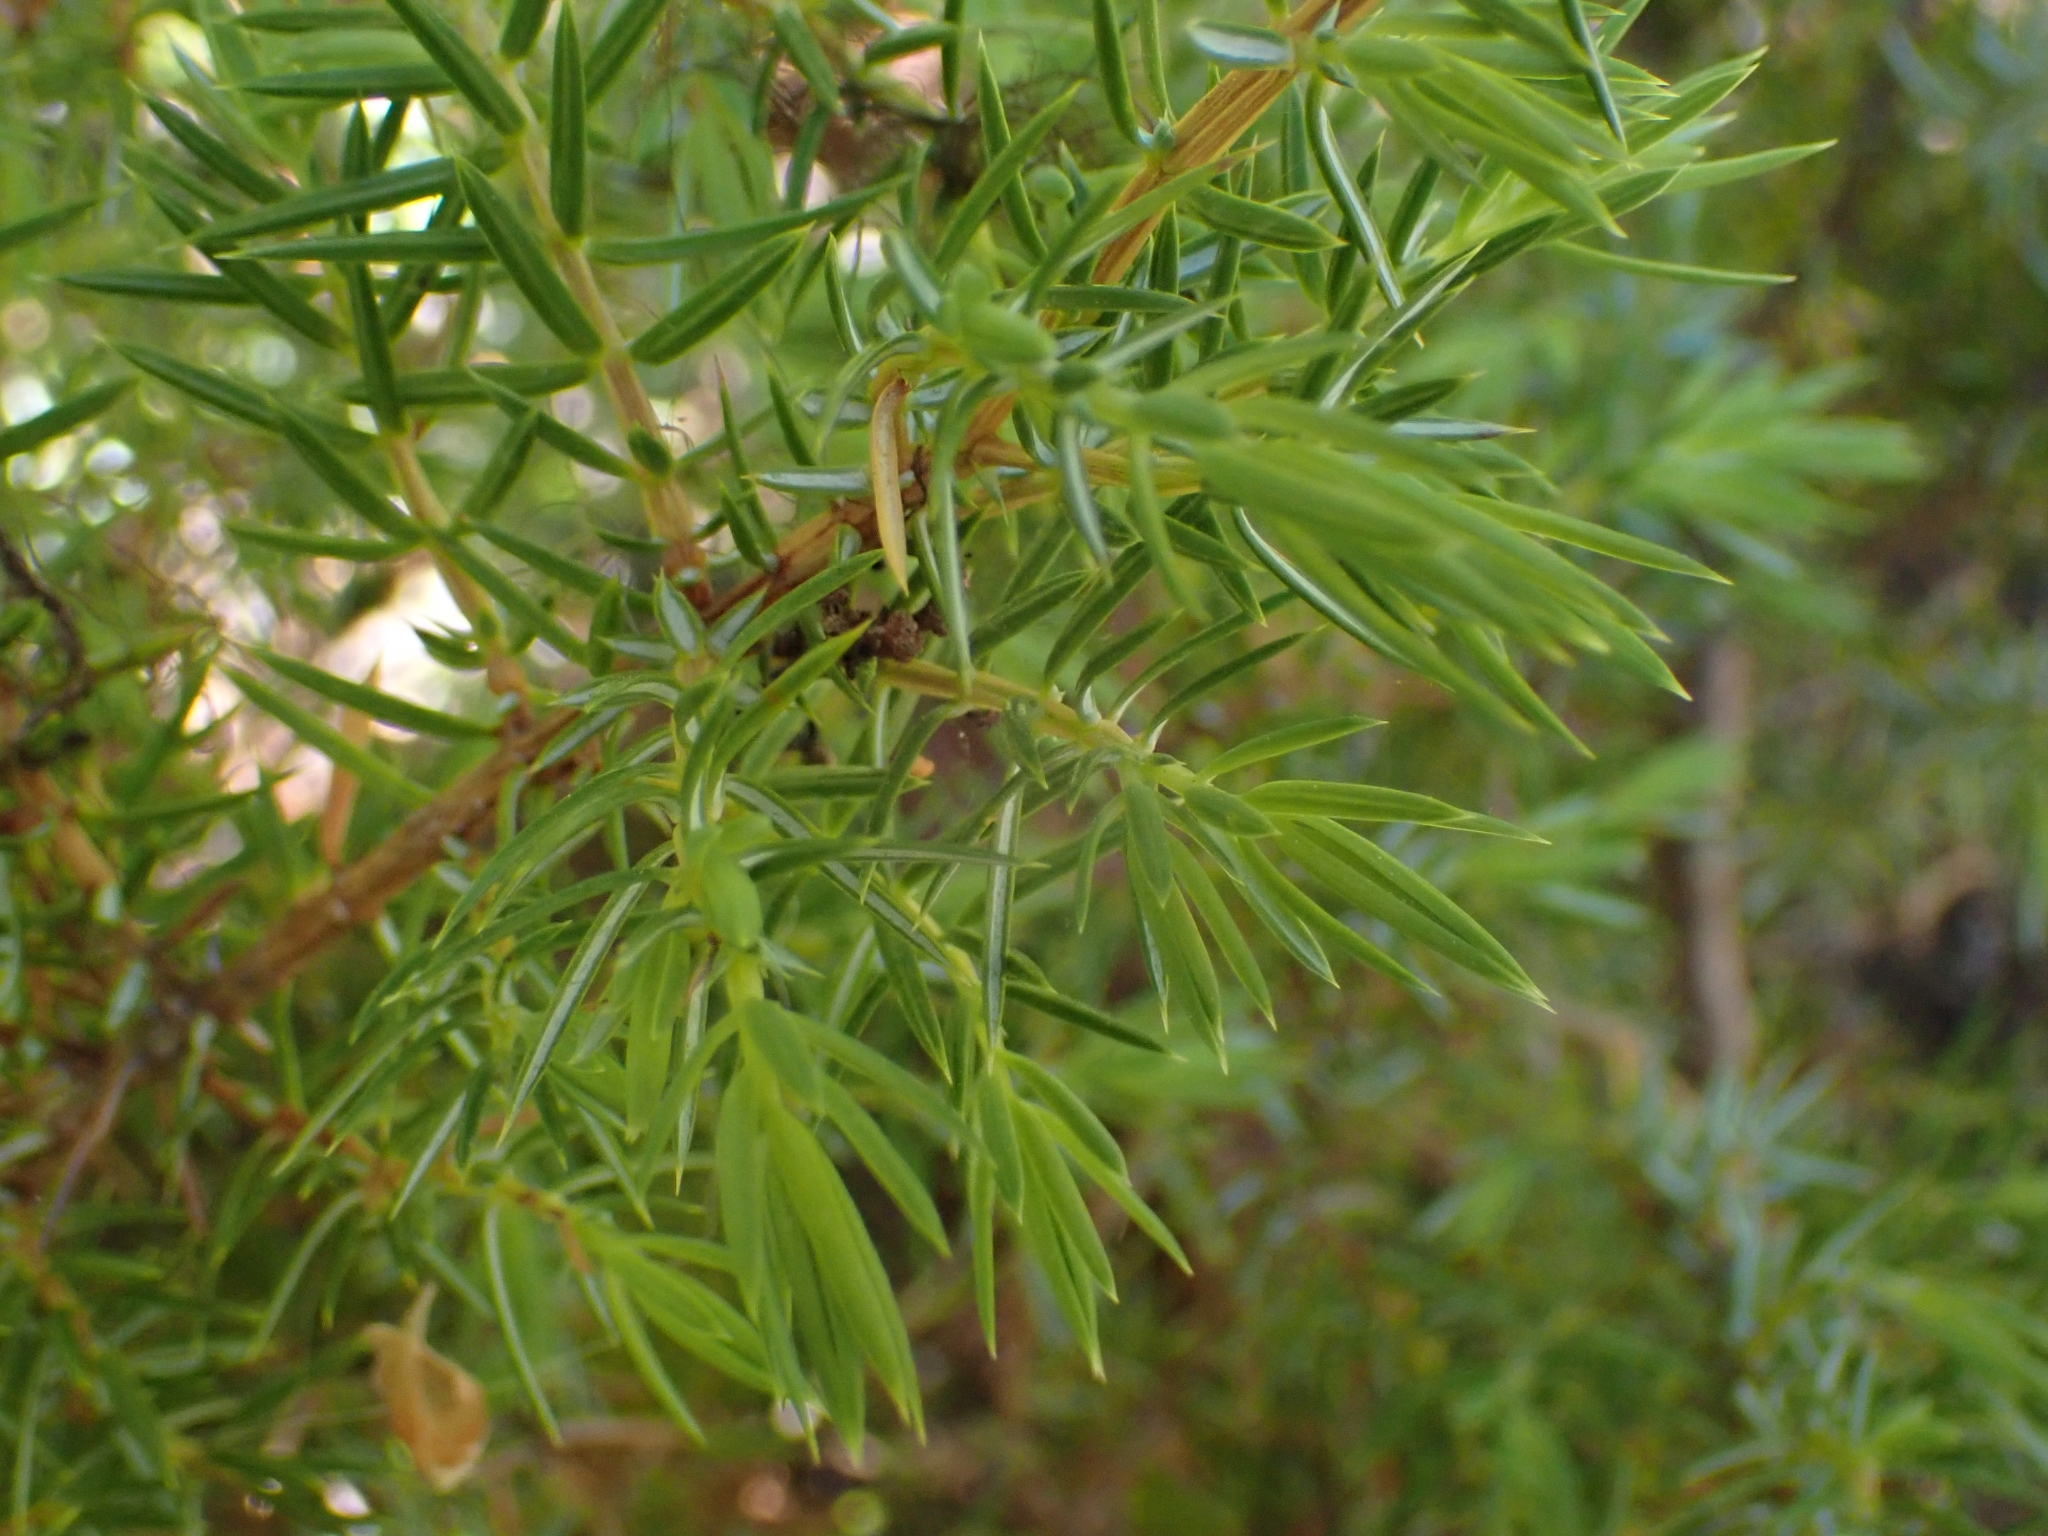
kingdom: Plantae
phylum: Tracheophyta
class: Pinopsida
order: Pinales
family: Cupressaceae
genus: Juniperus
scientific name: Juniperus communis
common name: Common juniper
